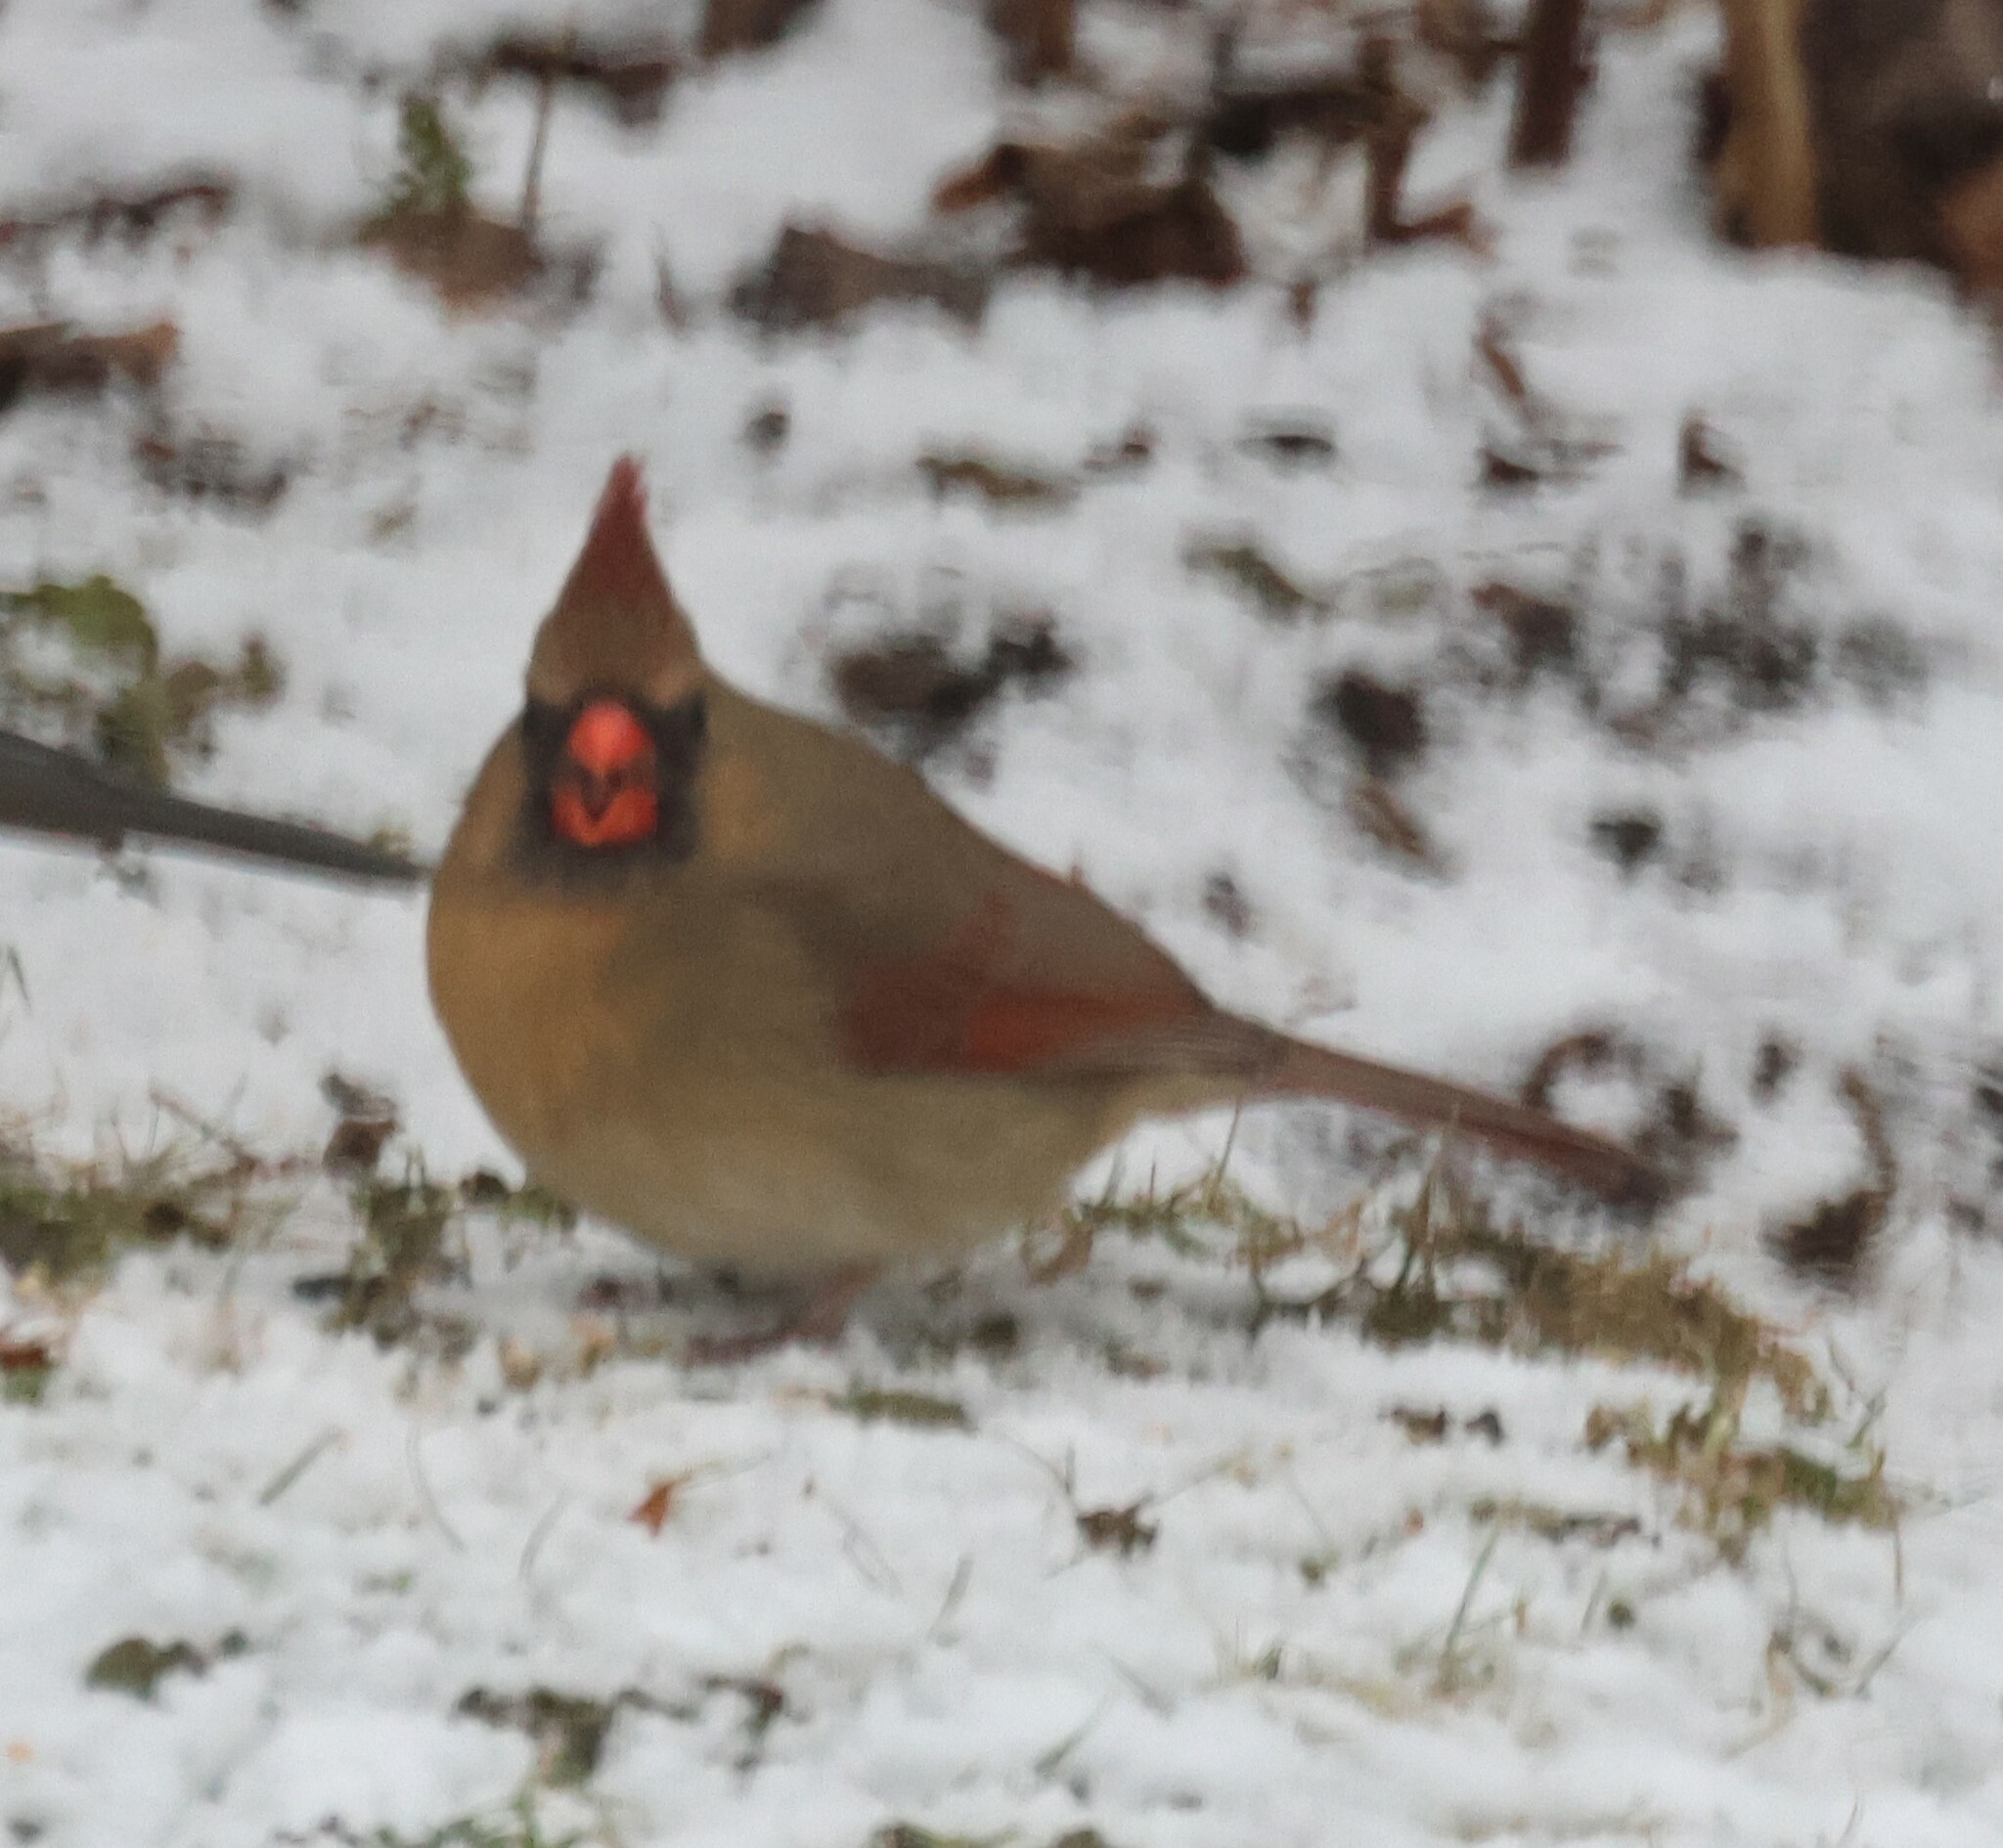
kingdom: Animalia
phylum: Chordata
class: Aves
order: Passeriformes
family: Cardinalidae
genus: Cardinalis
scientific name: Cardinalis cardinalis
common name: Northern cardinal
